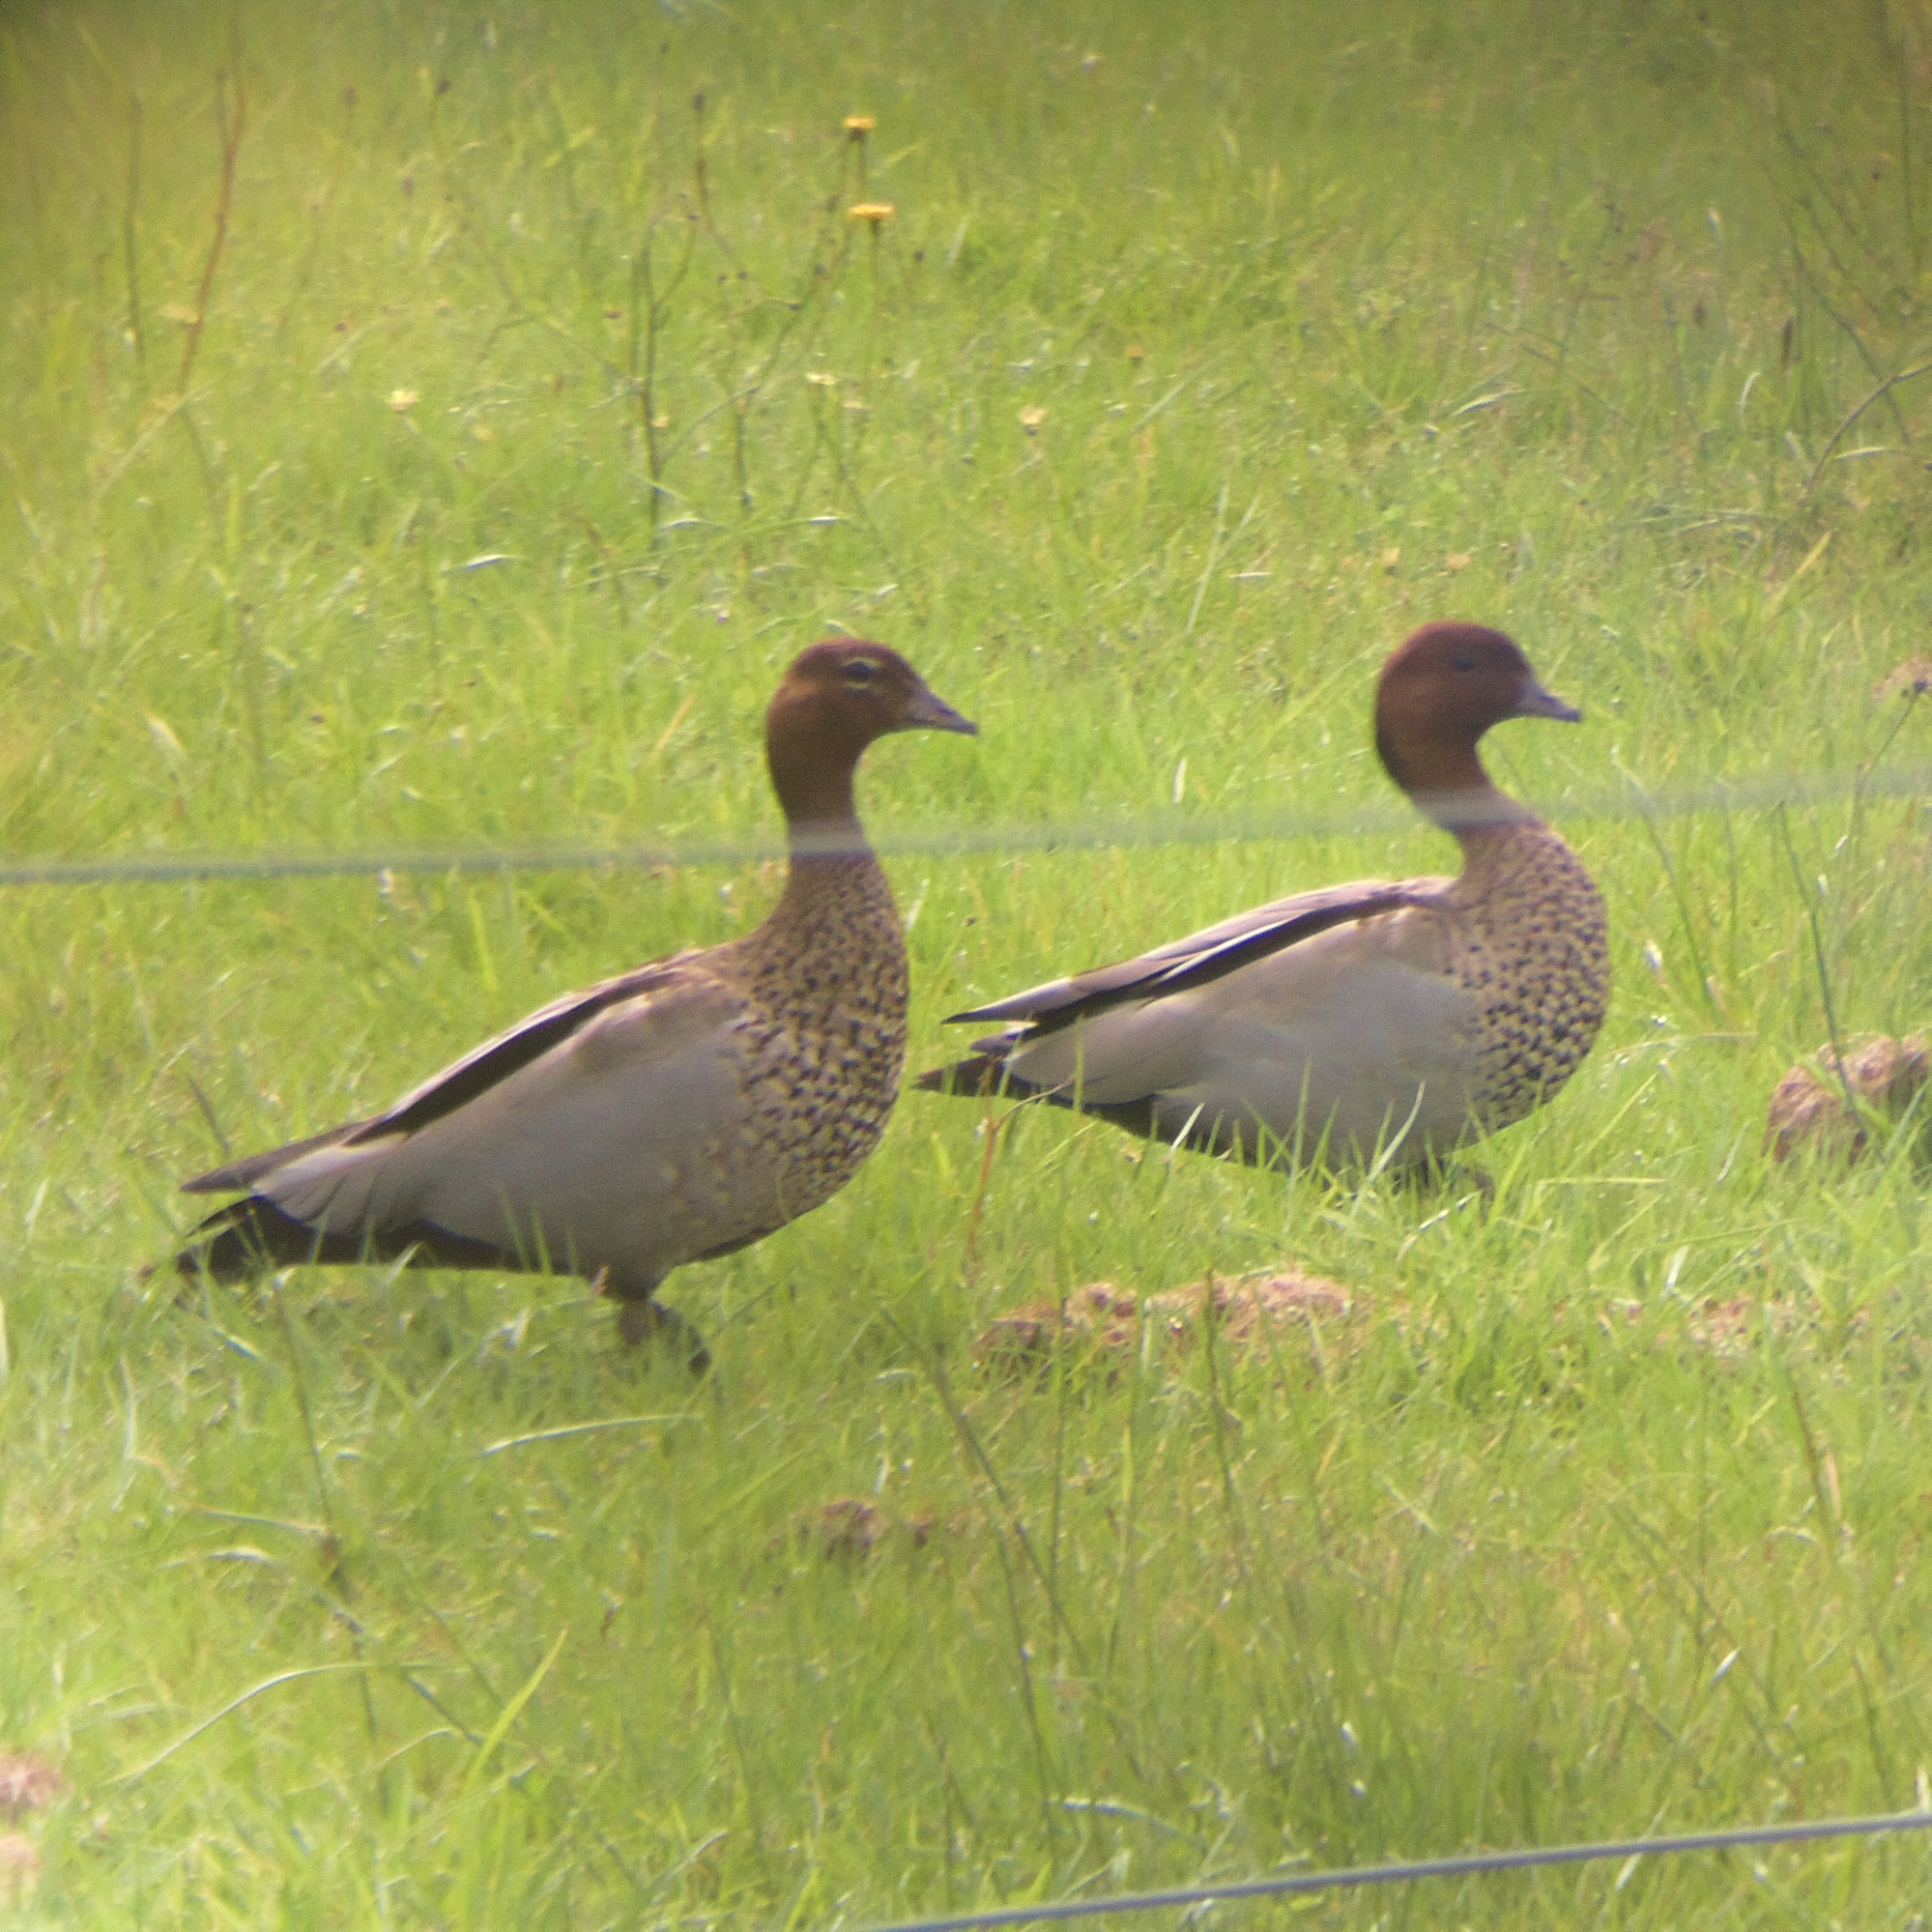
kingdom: Animalia
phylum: Chordata
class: Aves
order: Anseriformes
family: Anatidae
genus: Chenonetta
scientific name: Chenonetta jubata
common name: Maned duck
